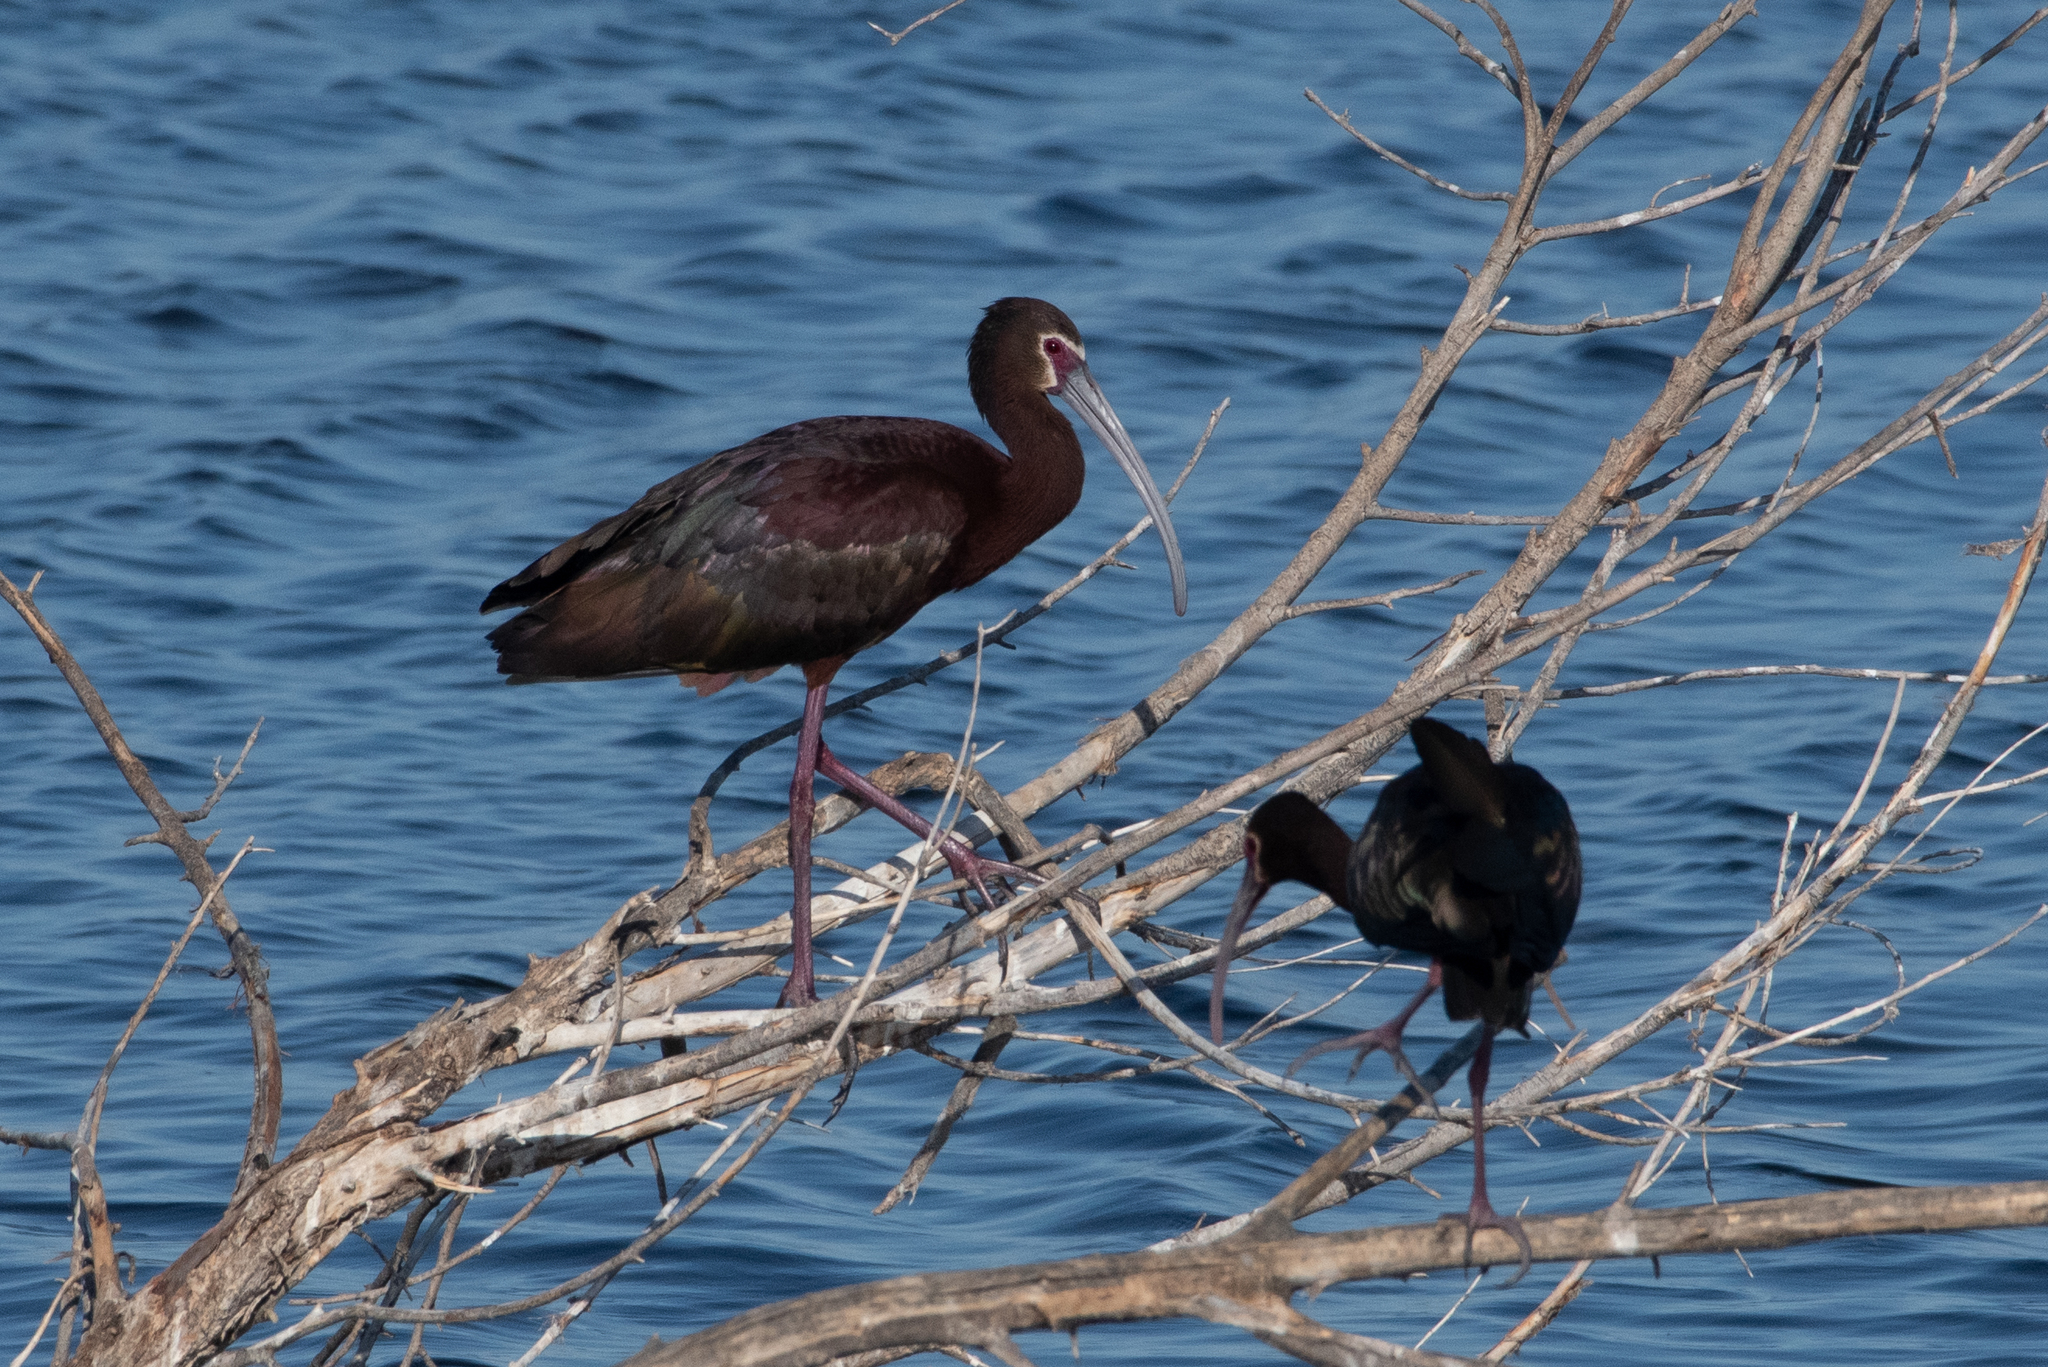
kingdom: Animalia
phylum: Chordata
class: Aves
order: Pelecaniformes
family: Threskiornithidae
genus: Plegadis
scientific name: Plegadis chihi
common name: White-faced ibis
